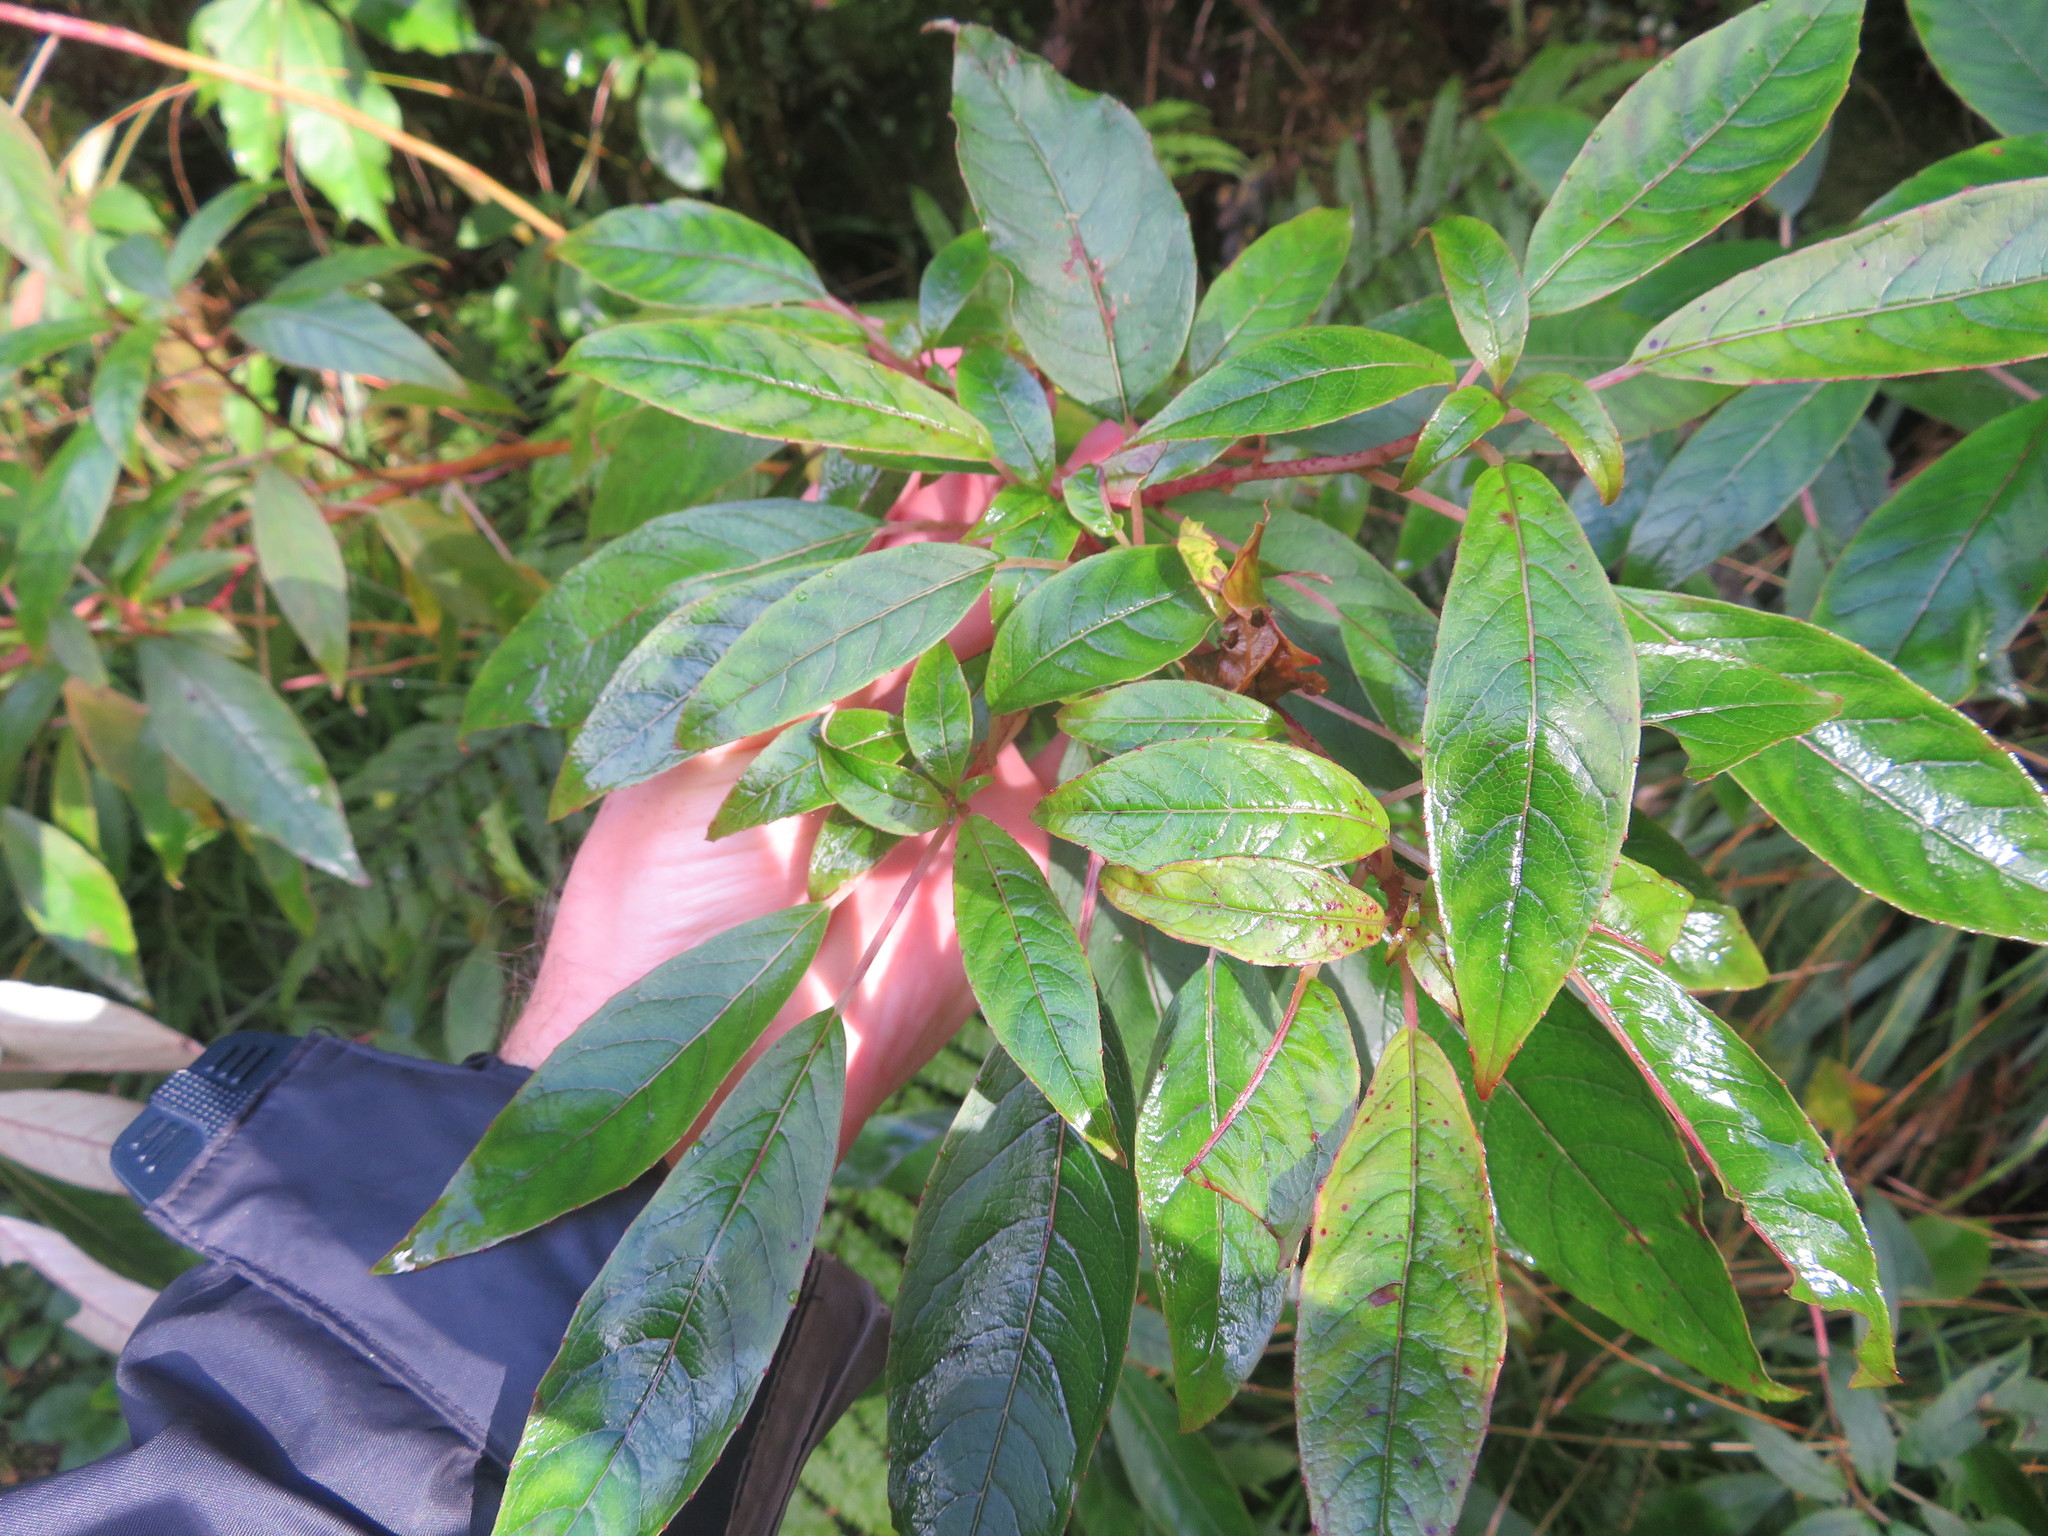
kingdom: Plantae
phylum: Tracheophyta
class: Magnoliopsida
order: Myrtales
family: Onagraceae
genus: Fuchsia
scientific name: Fuchsia excorticata
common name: Tree fuchsia
